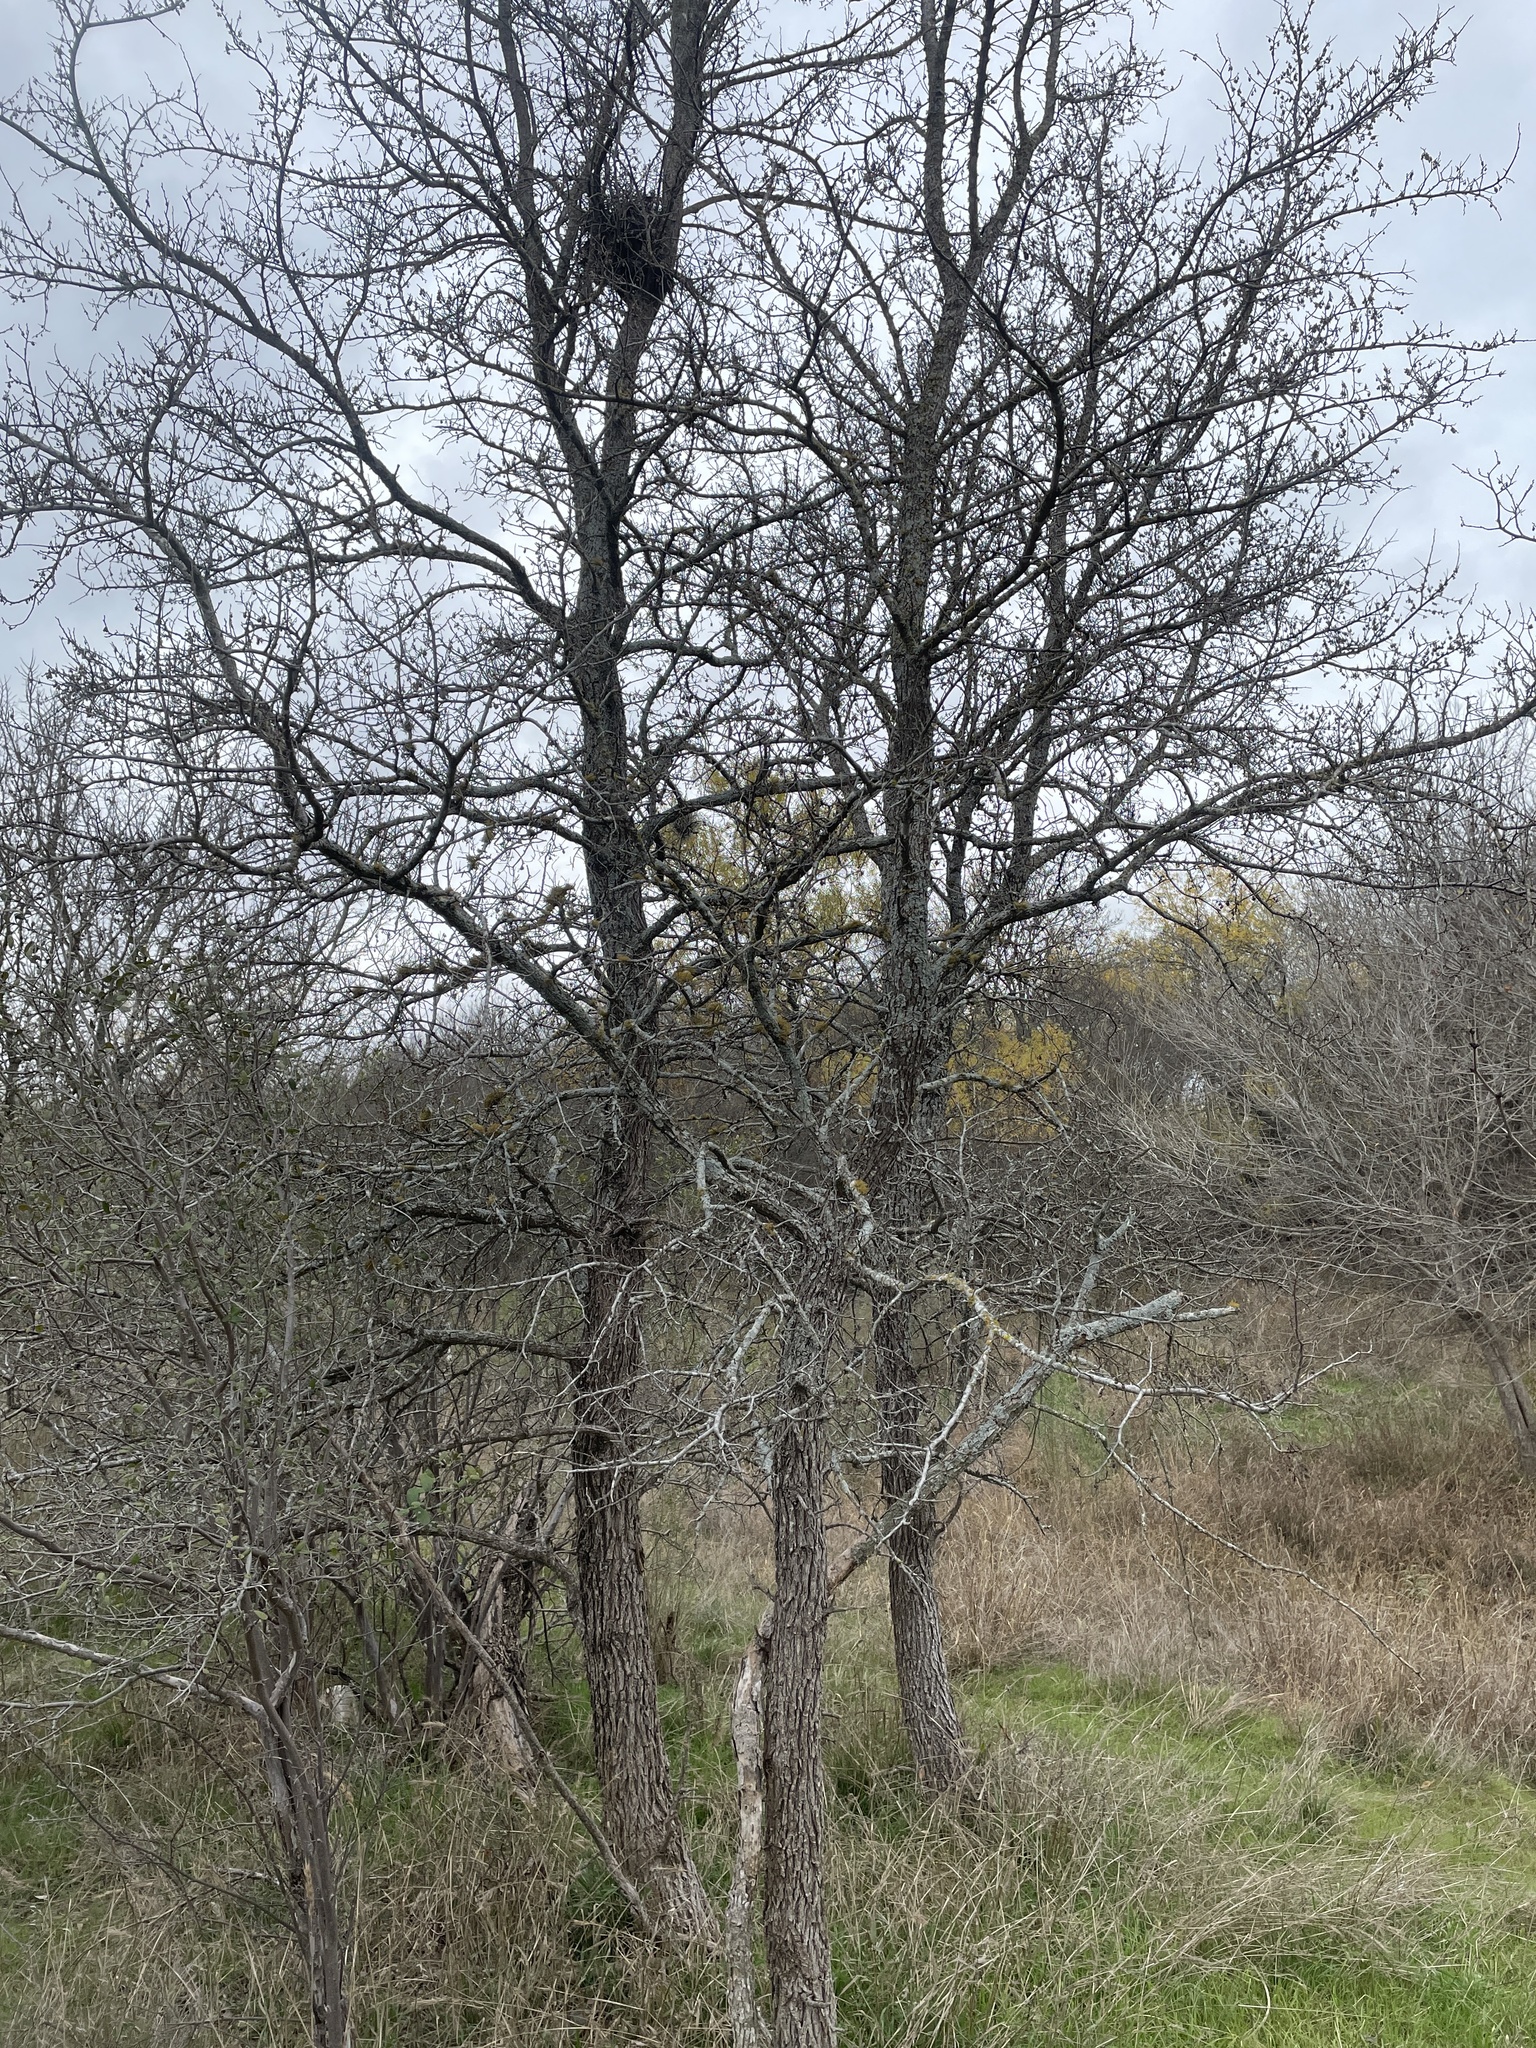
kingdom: Plantae
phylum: Tracheophyta
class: Magnoliopsida
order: Rosales
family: Ulmaceae
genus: Ulmus
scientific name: Ulmus crassifolia
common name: Basket elm
